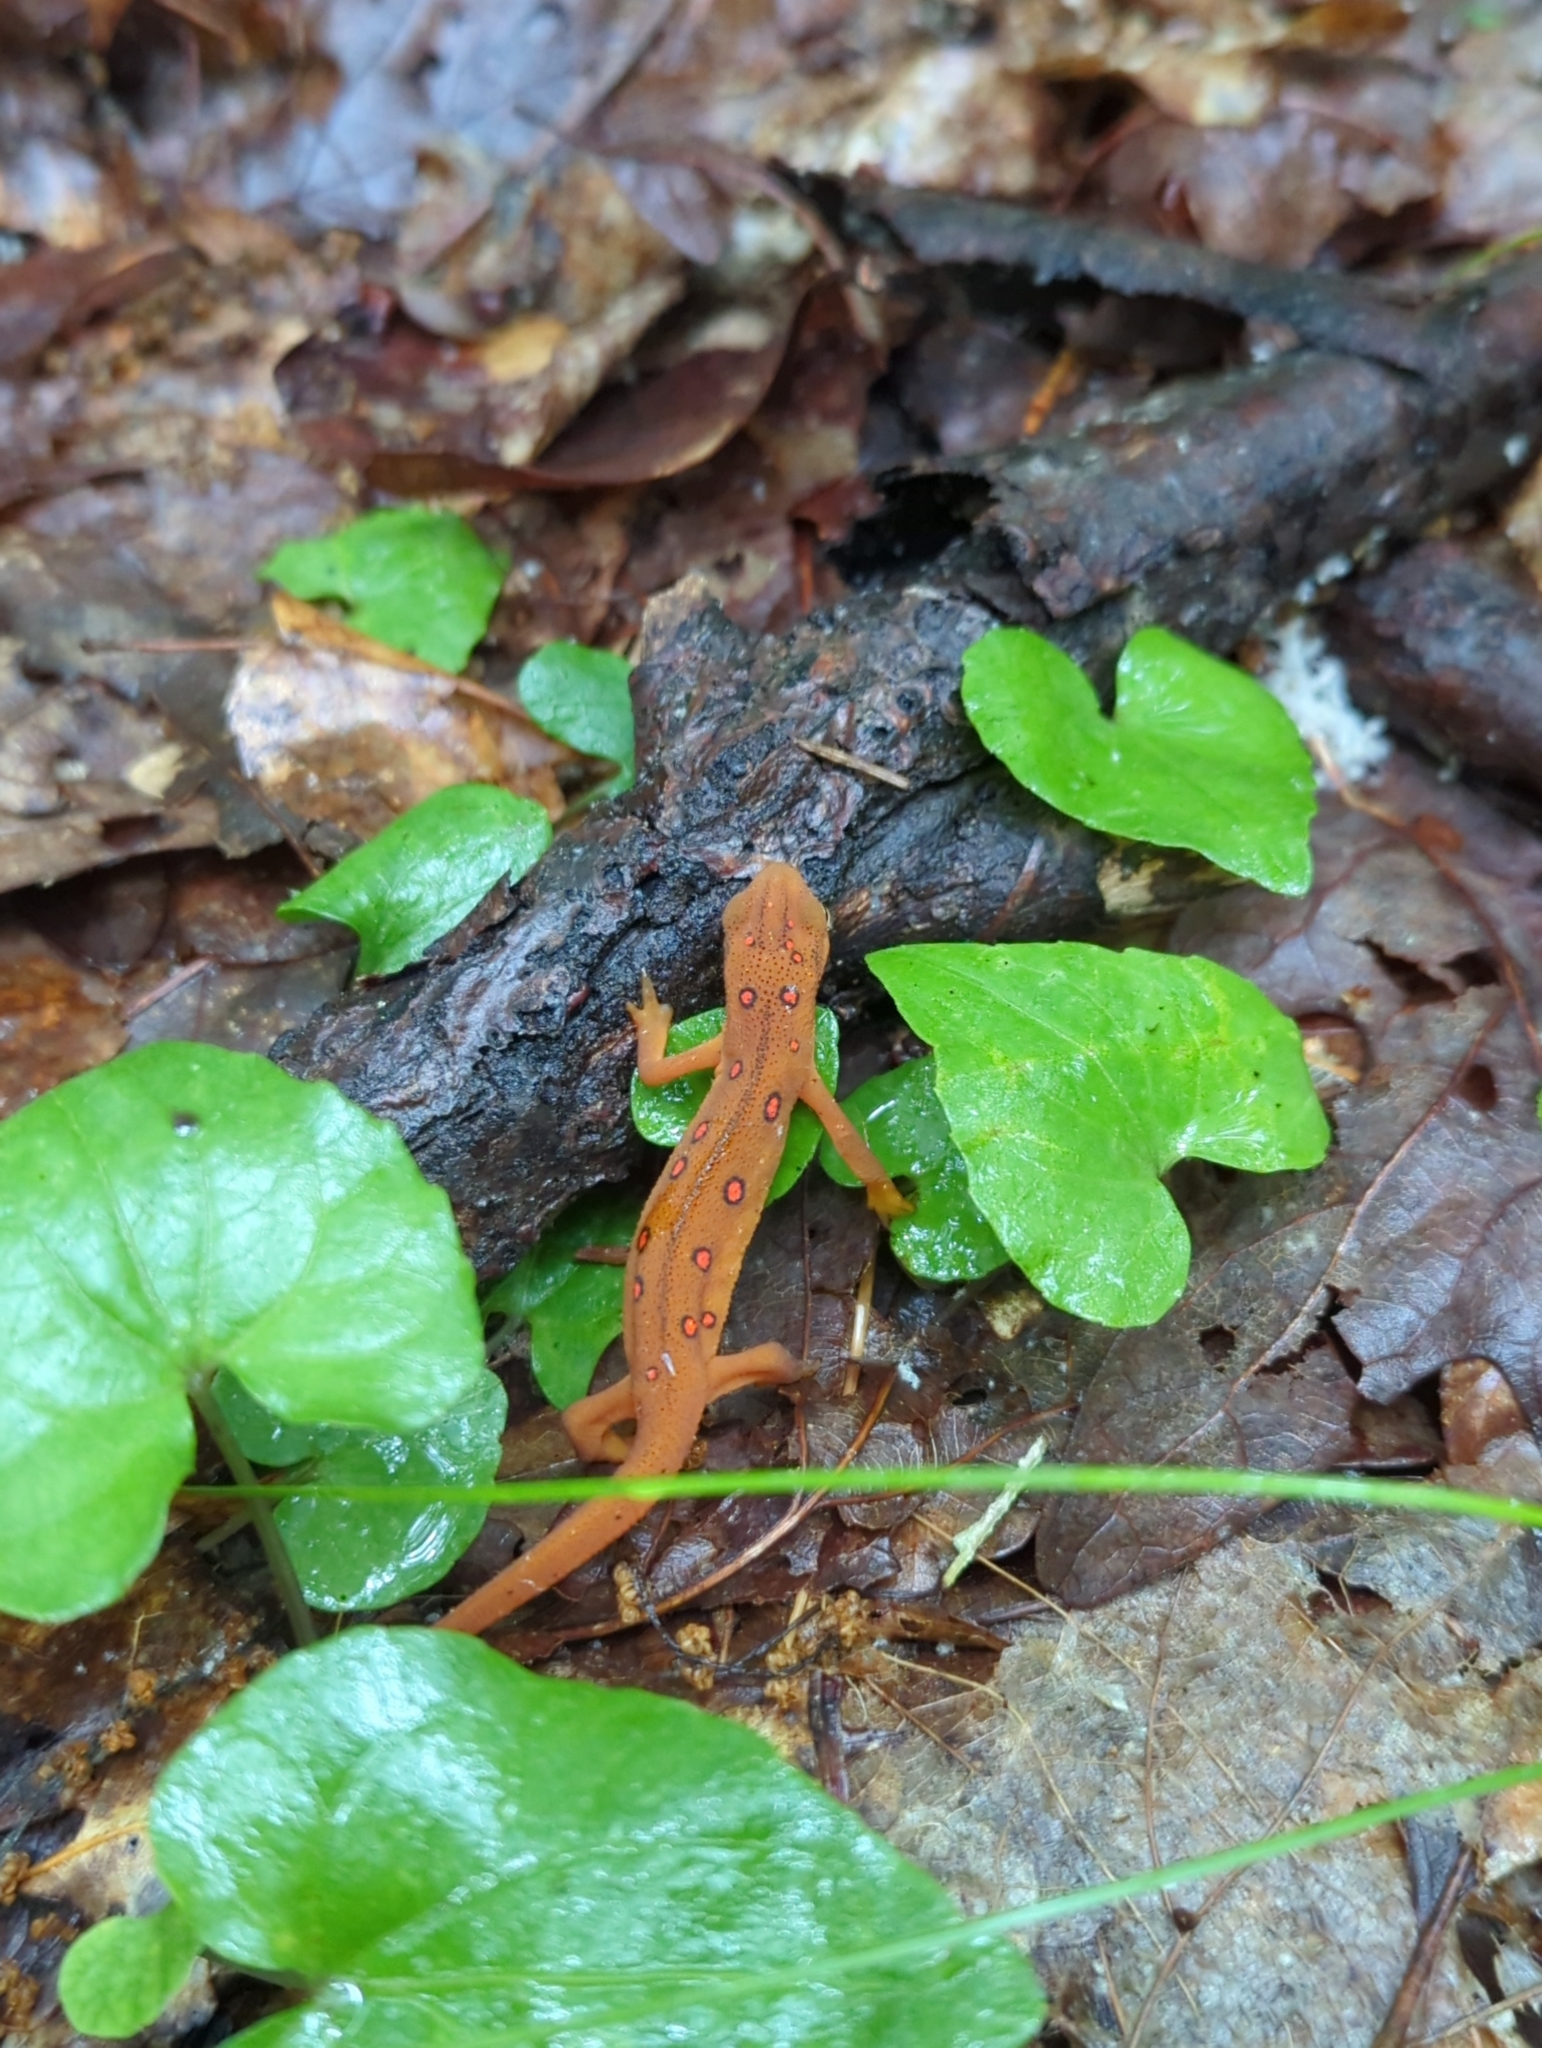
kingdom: Animalia
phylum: Chordata
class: Amphibia
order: Caudata
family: Salamandridae
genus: Notophthalmus
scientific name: Notophthalmus viridescens
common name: Eastern newt
